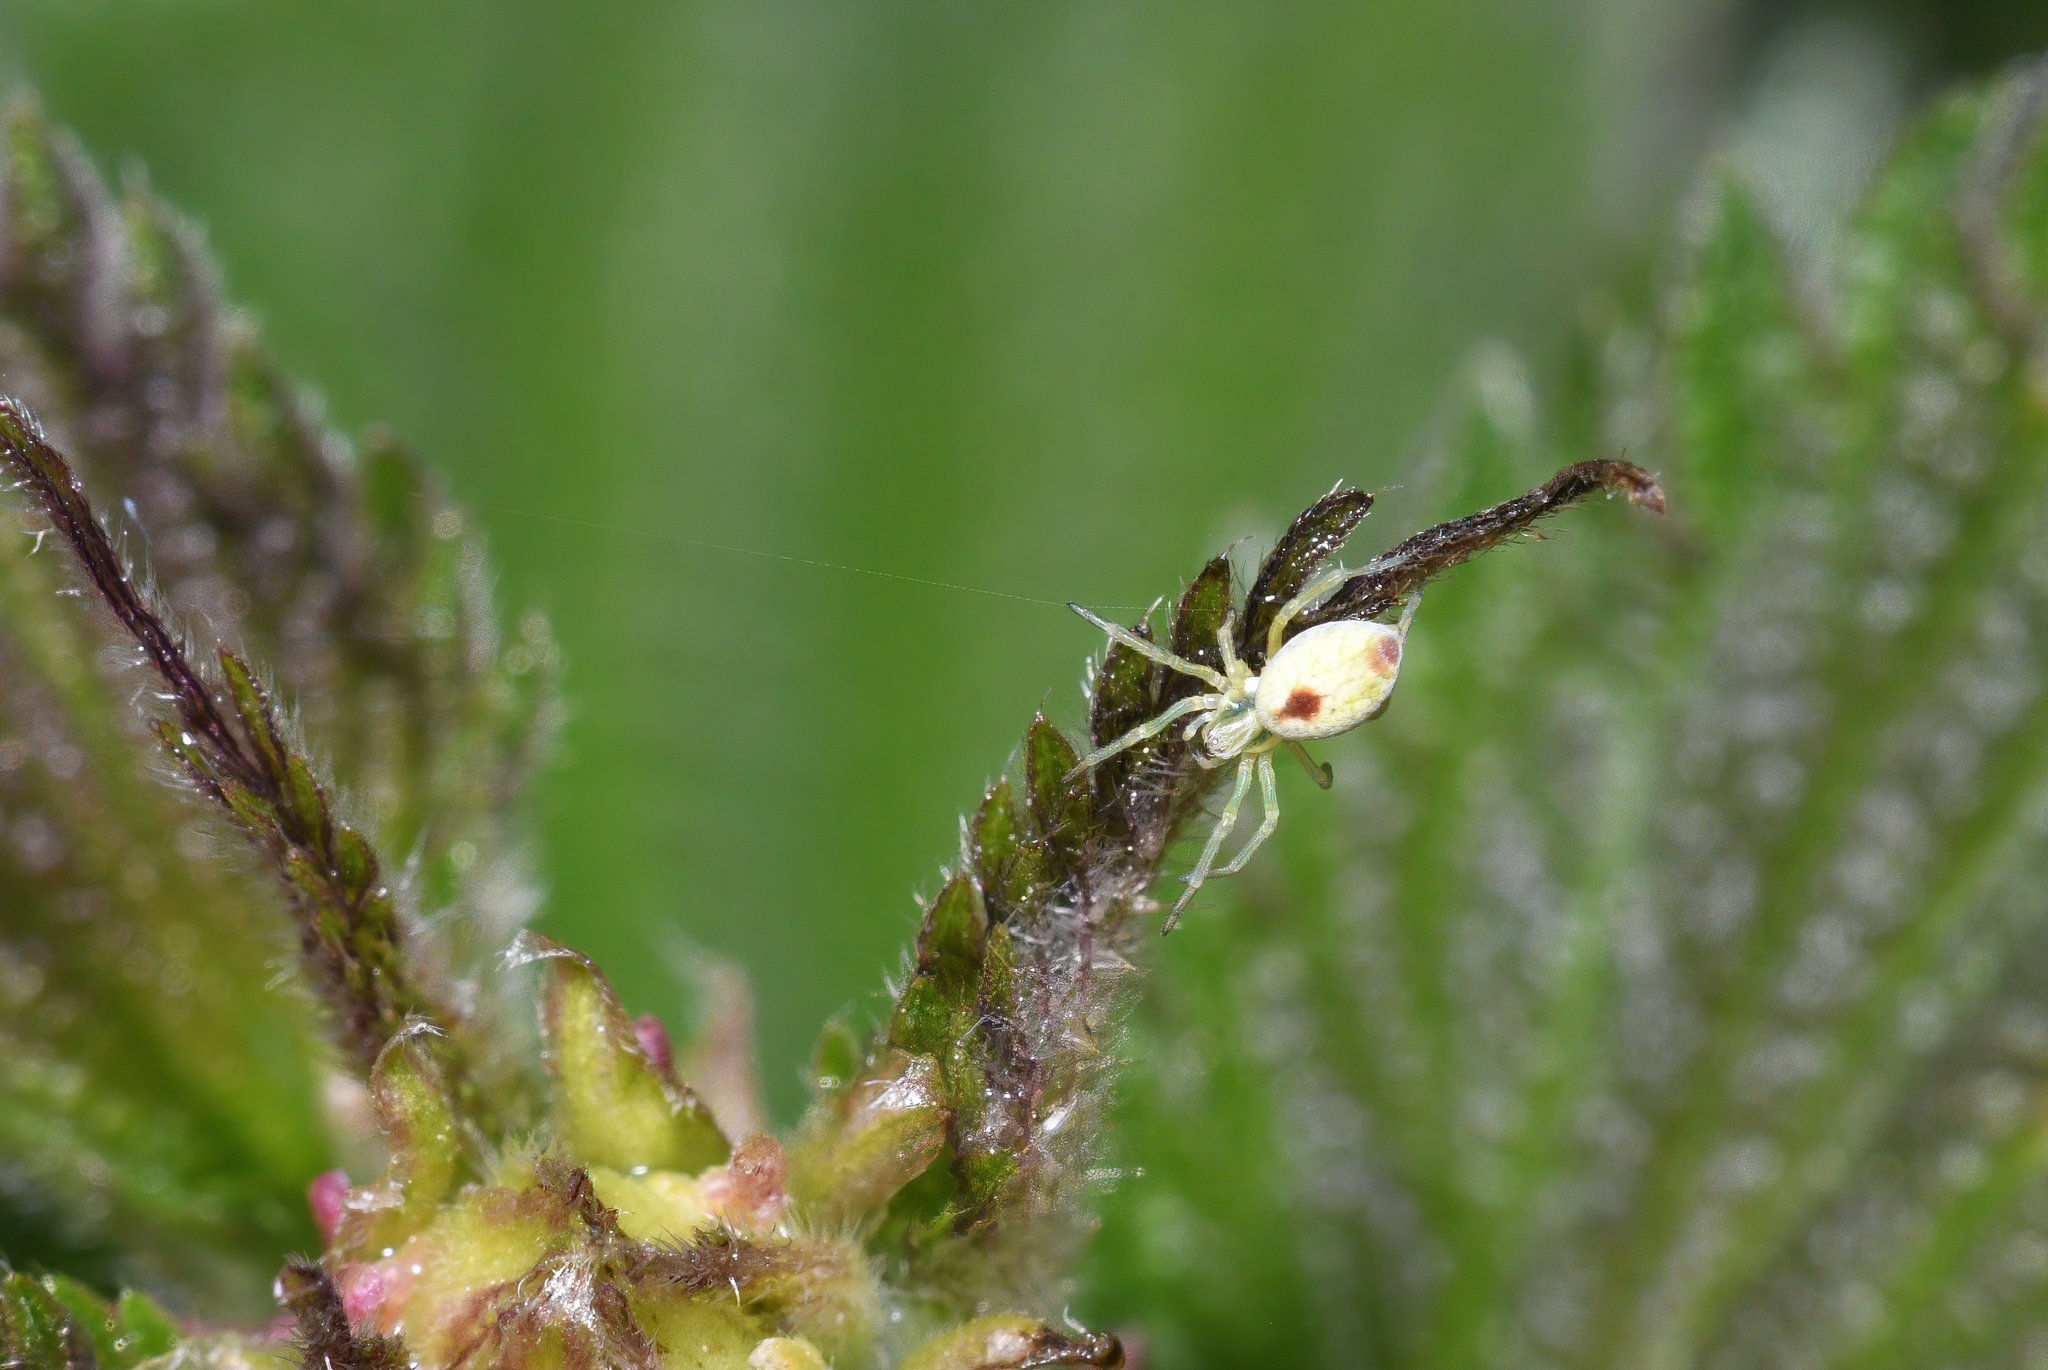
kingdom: Animalia
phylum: Arthropoda
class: Arachnida
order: Araneae
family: Dictynidae
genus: Nigma
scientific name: Nigma puella
